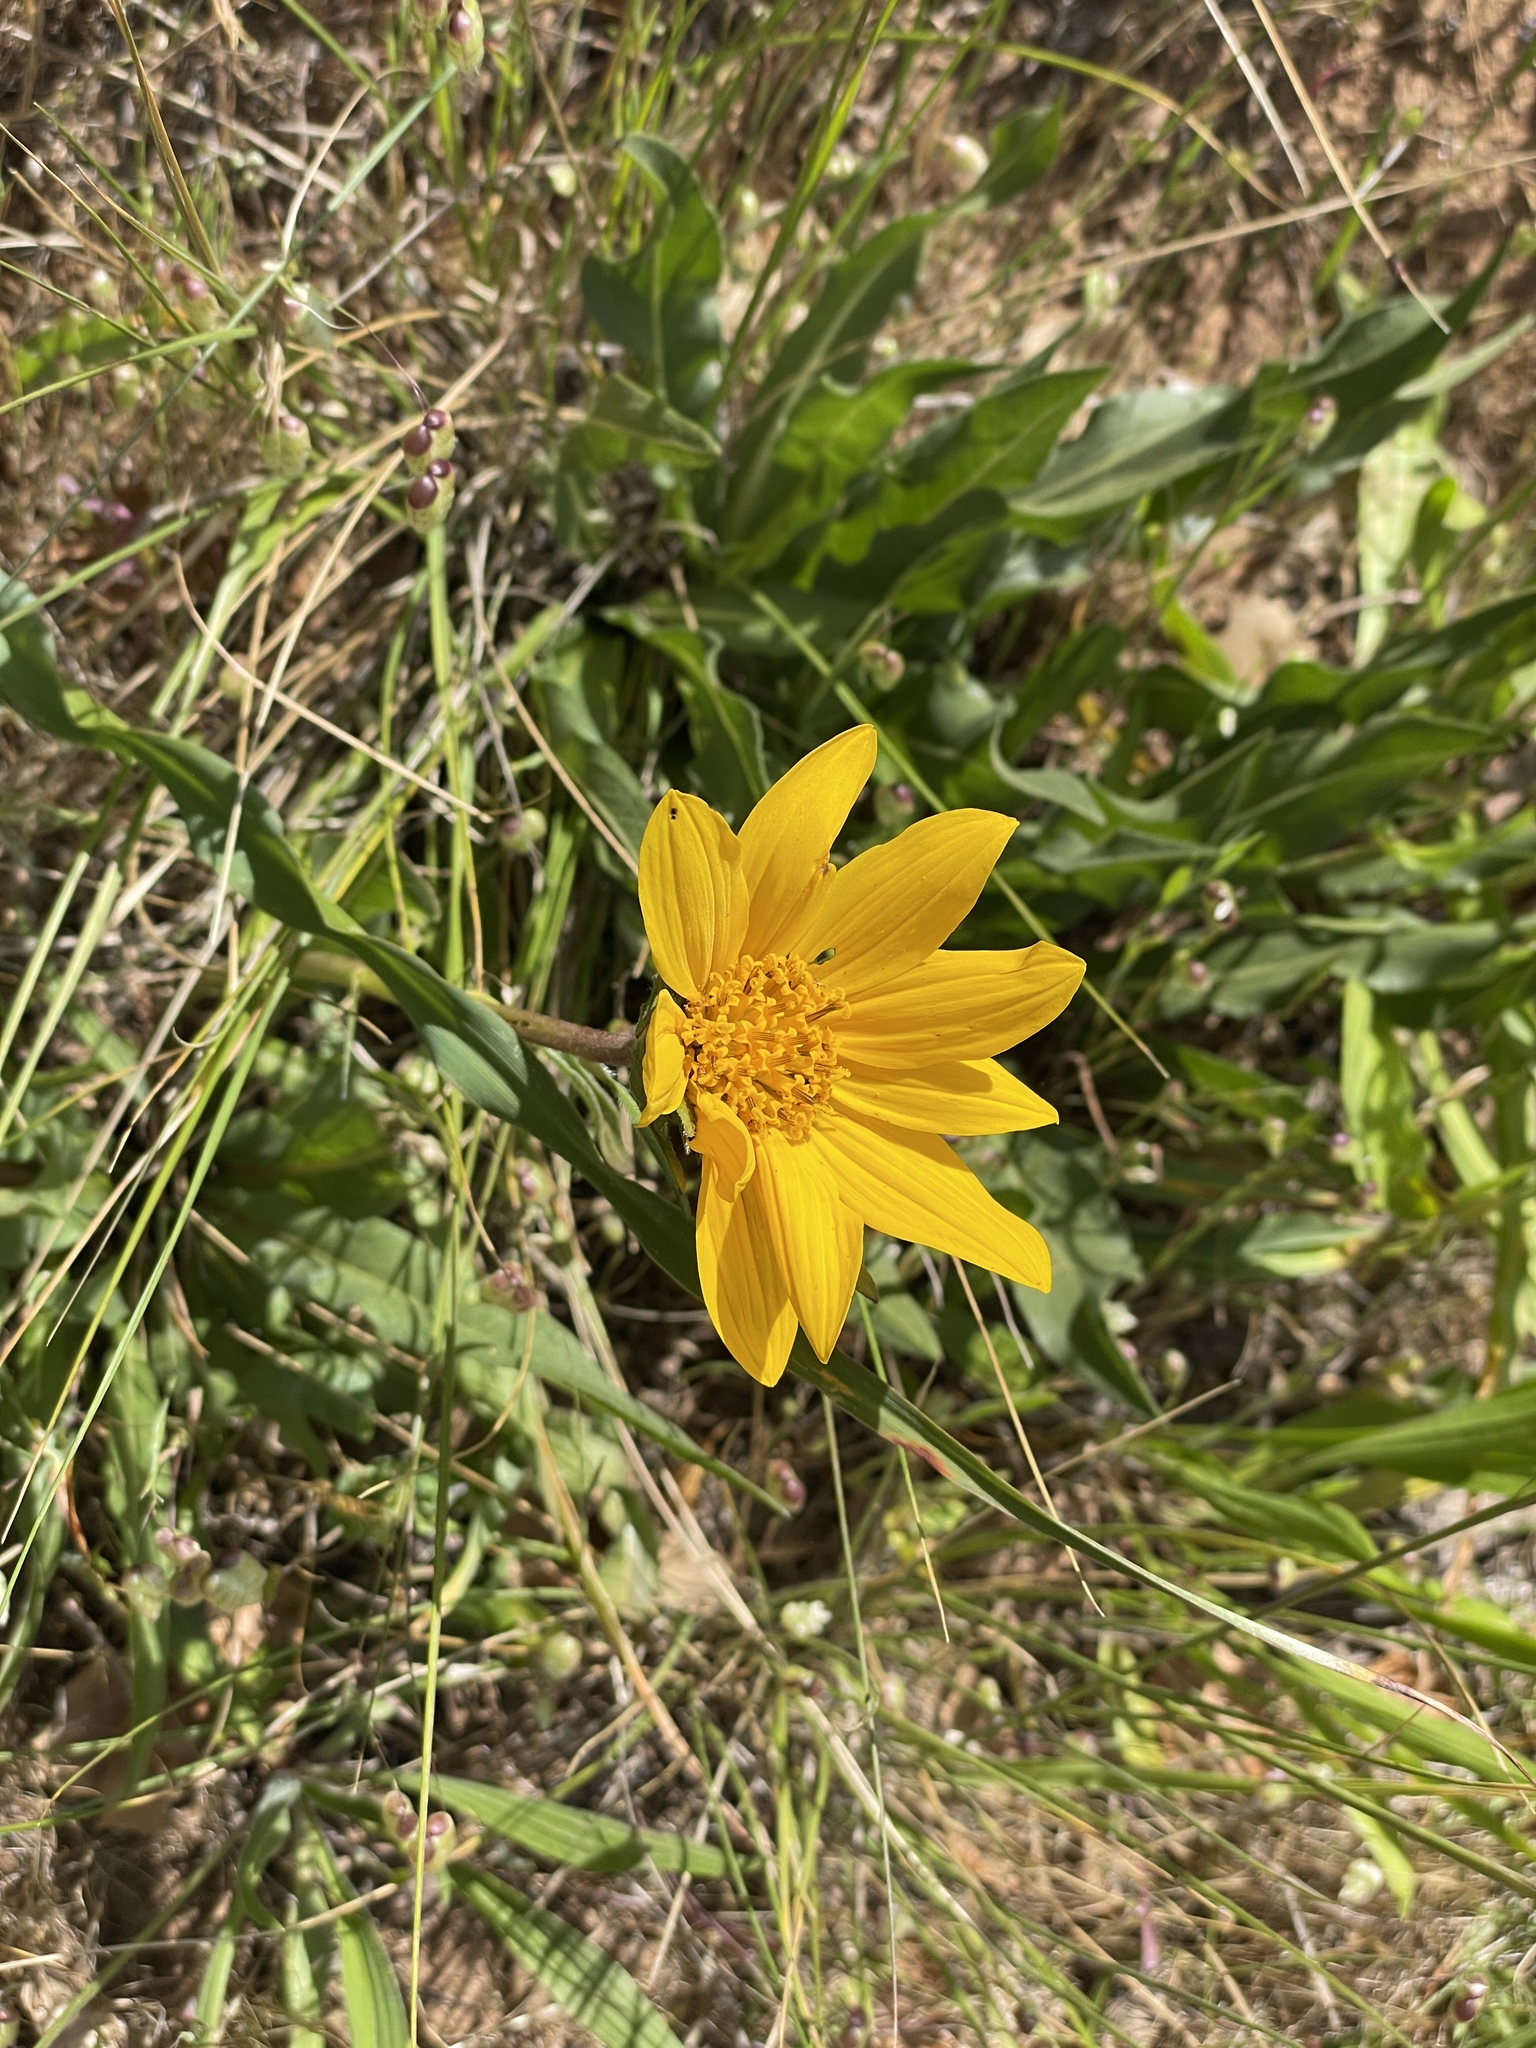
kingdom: Plantae
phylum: Tracheophyta
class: Magnoliopsida
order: Asterales
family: Asteraceae
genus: Wyethia
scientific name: Wyethia angustifolia
